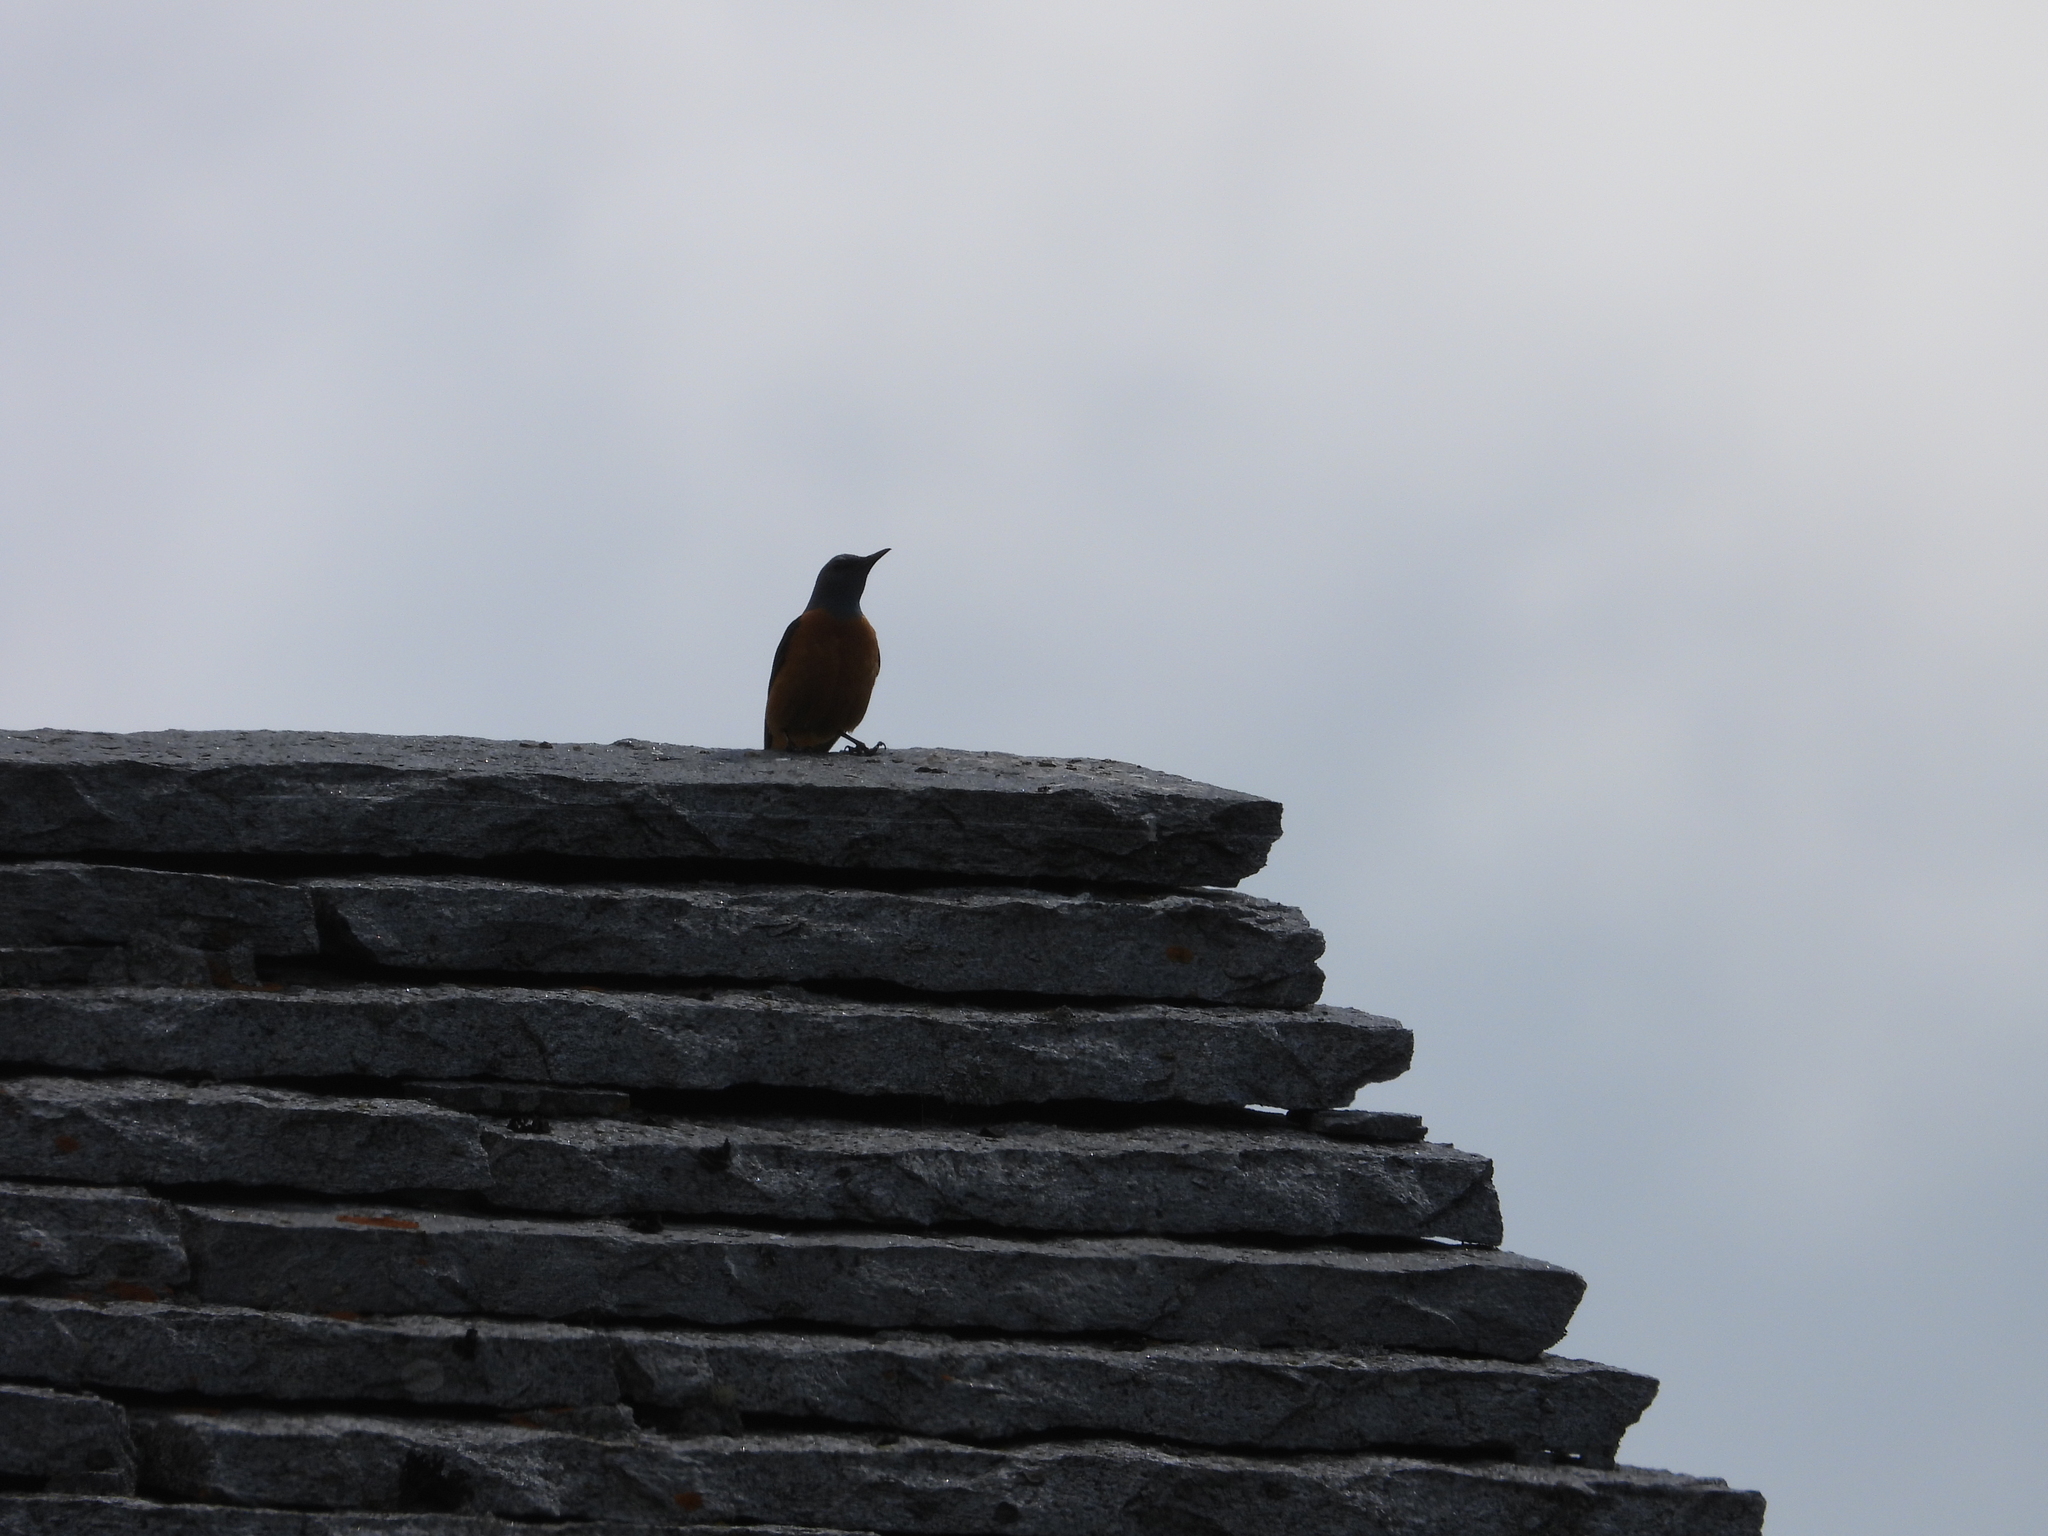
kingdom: Animalia
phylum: Chordata
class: Aves
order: Passeriformes
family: Muscicapidae
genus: Monticola
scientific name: Monticola saxatilis
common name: Rufous-tailed rock thrush
